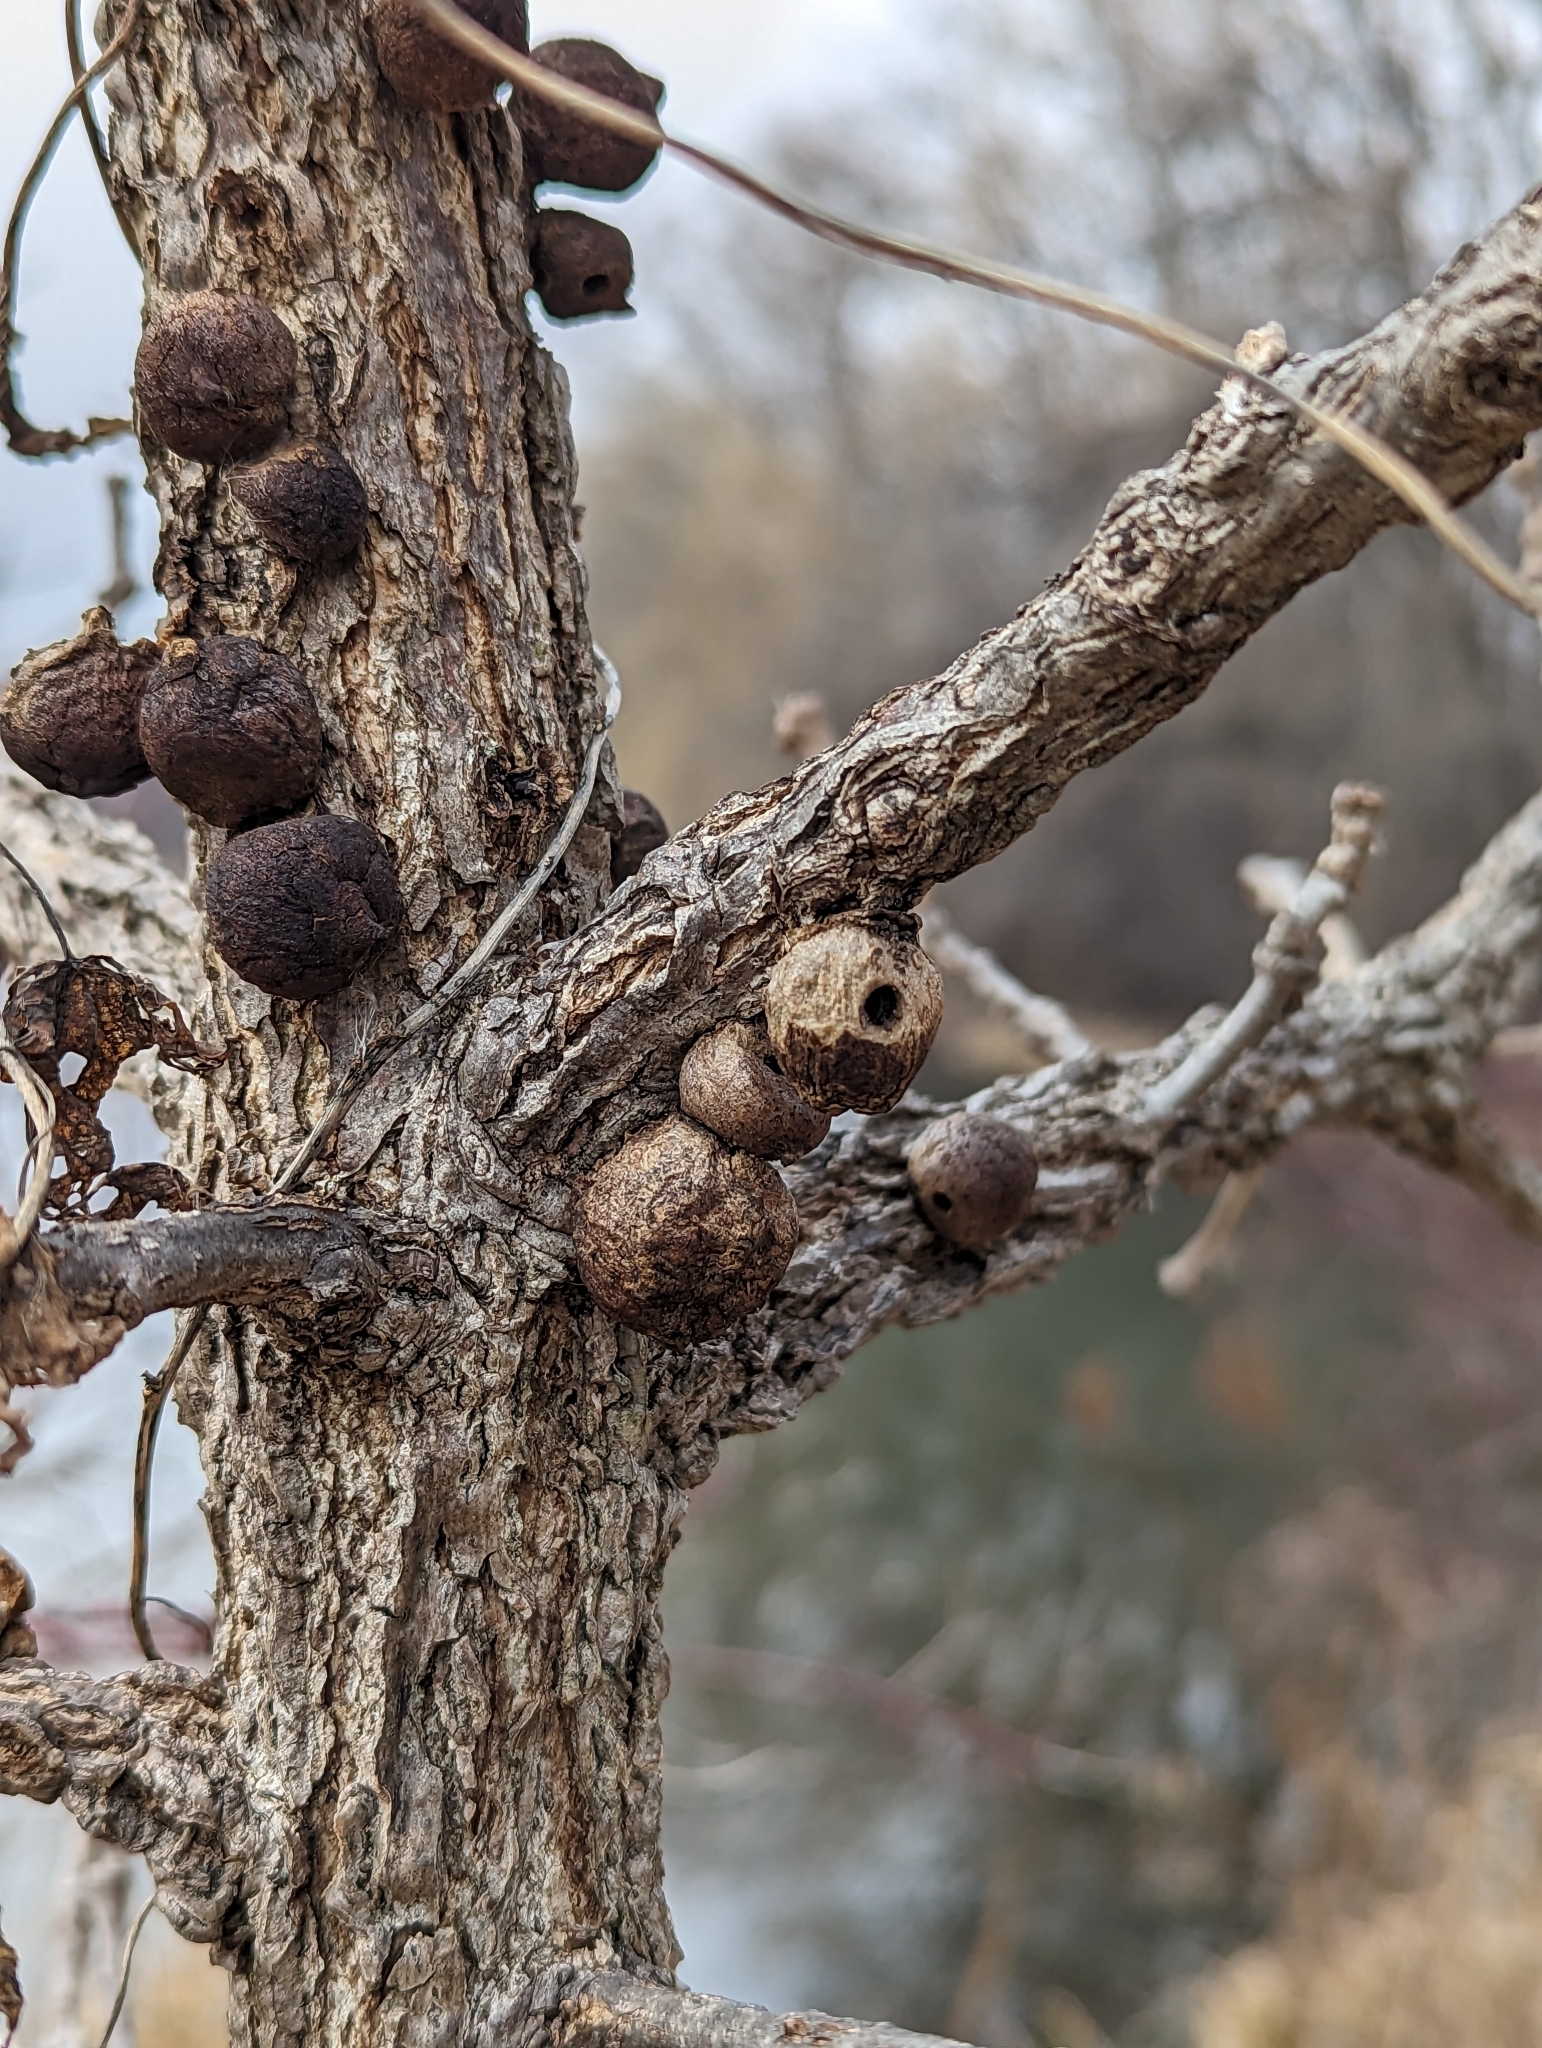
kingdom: Animalia
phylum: Arthropoda
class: Insecta
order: Hymenoptera
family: Cynipidae
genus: Disholcaspis
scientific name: Disholcaspis
